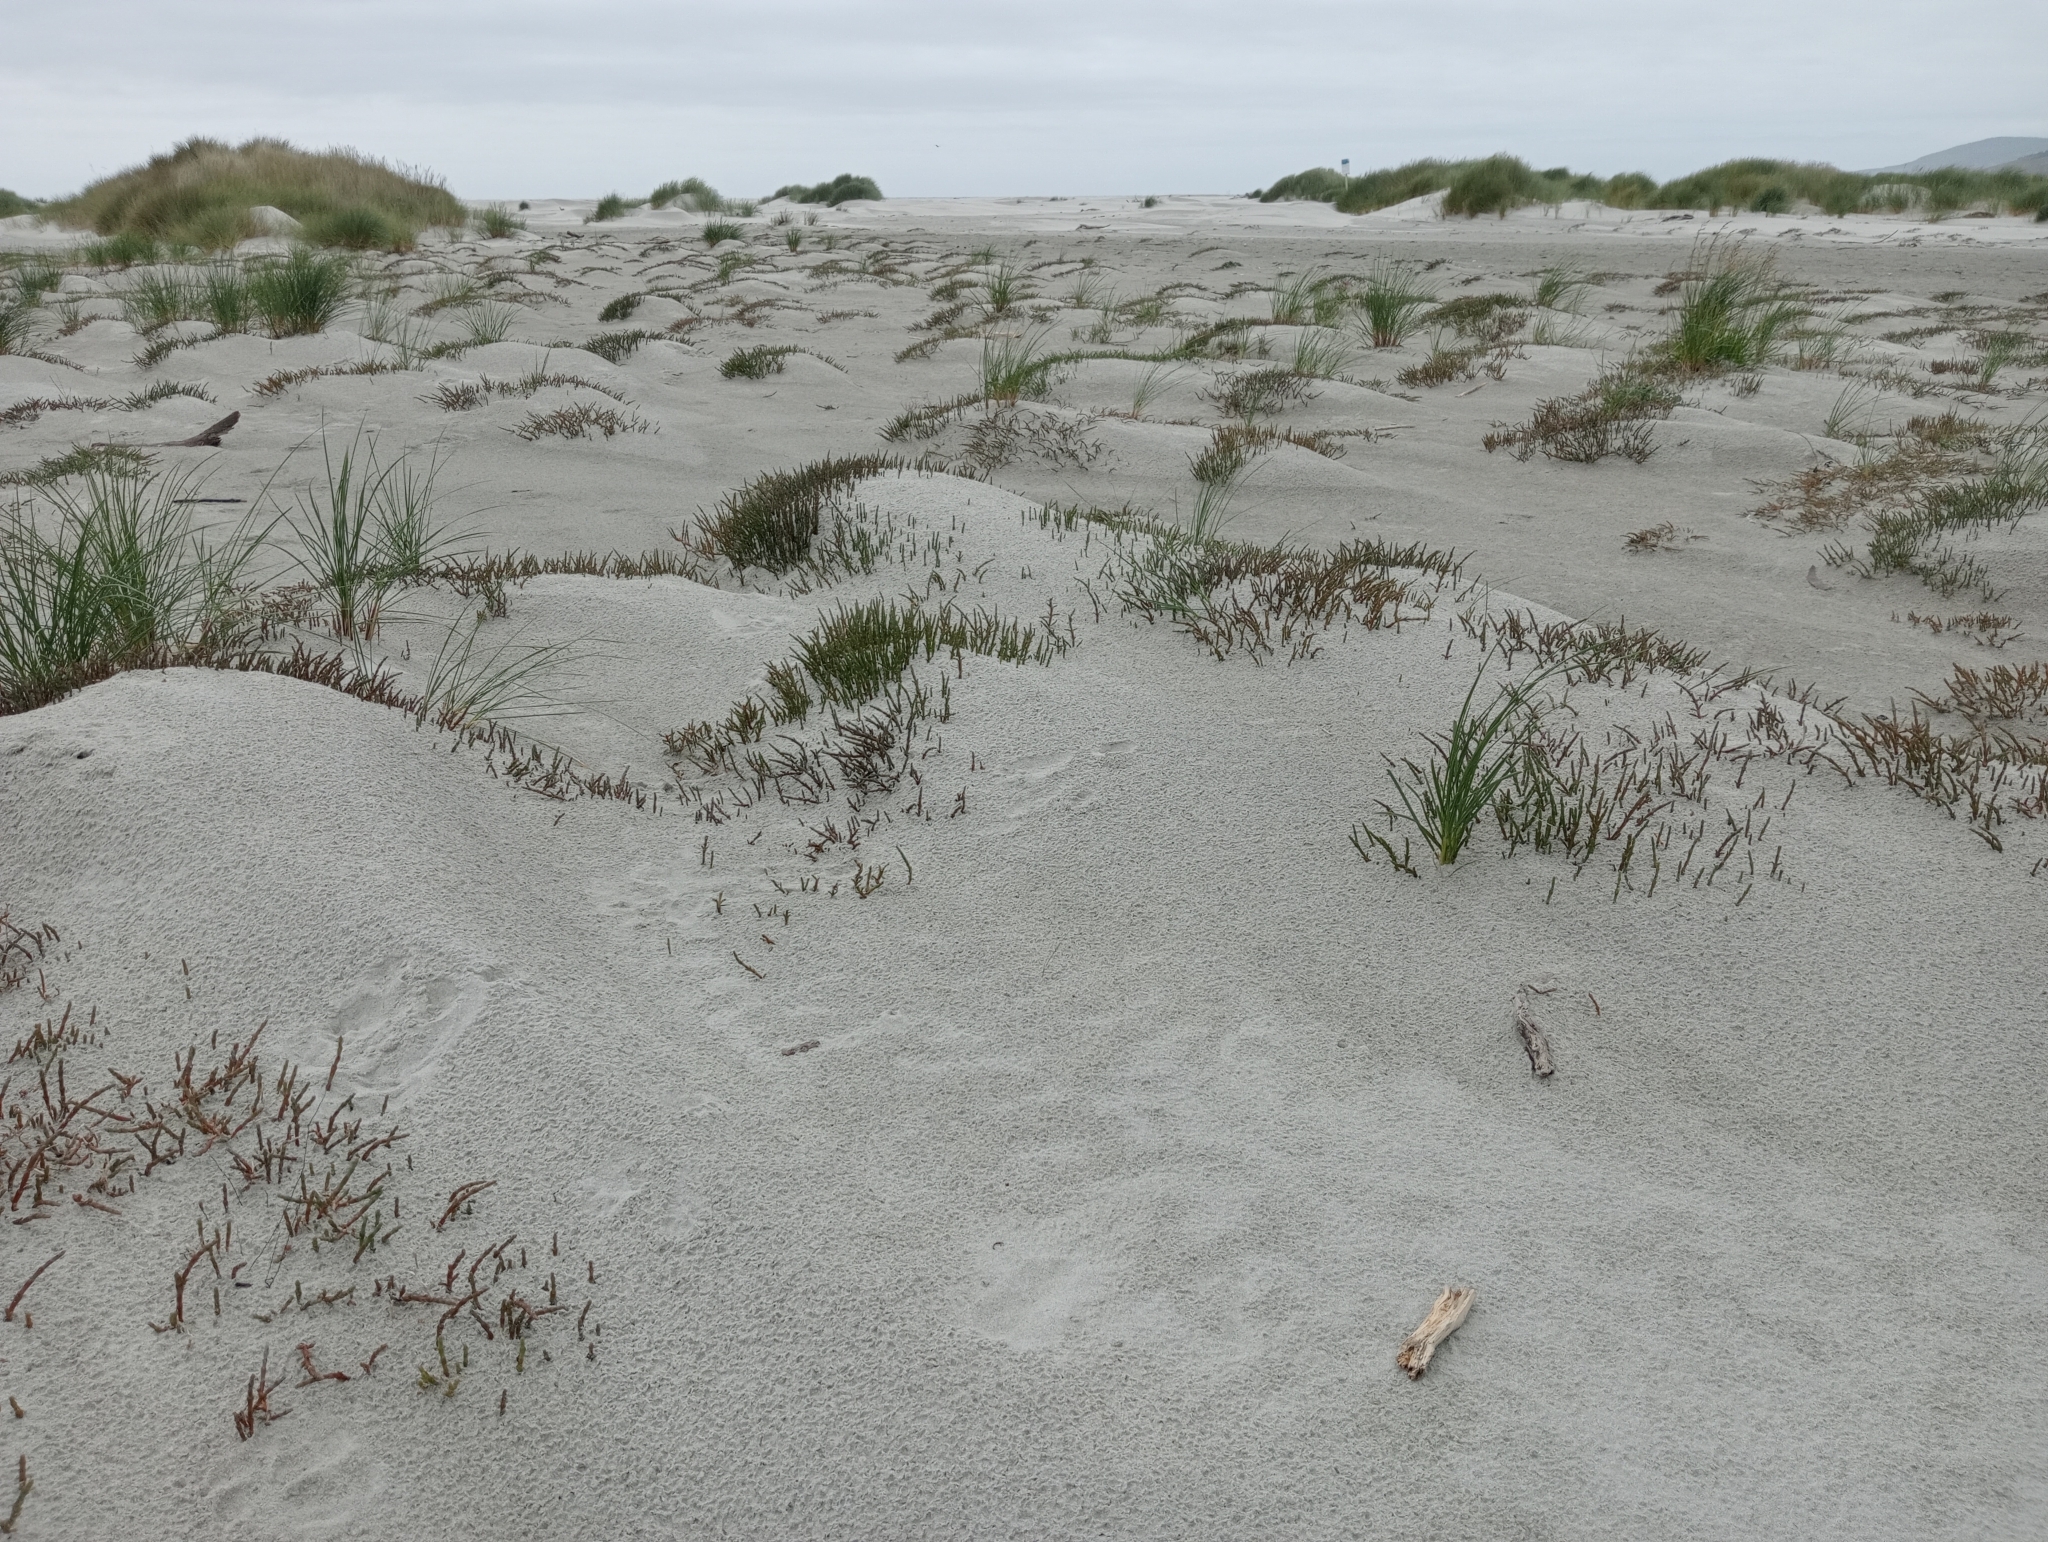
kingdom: Plantae
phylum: Tracheophyta
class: Magnoliopsida
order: Caryophyllales
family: Amaranthaceae
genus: Salicornia
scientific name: Salicornia quinqueflora
